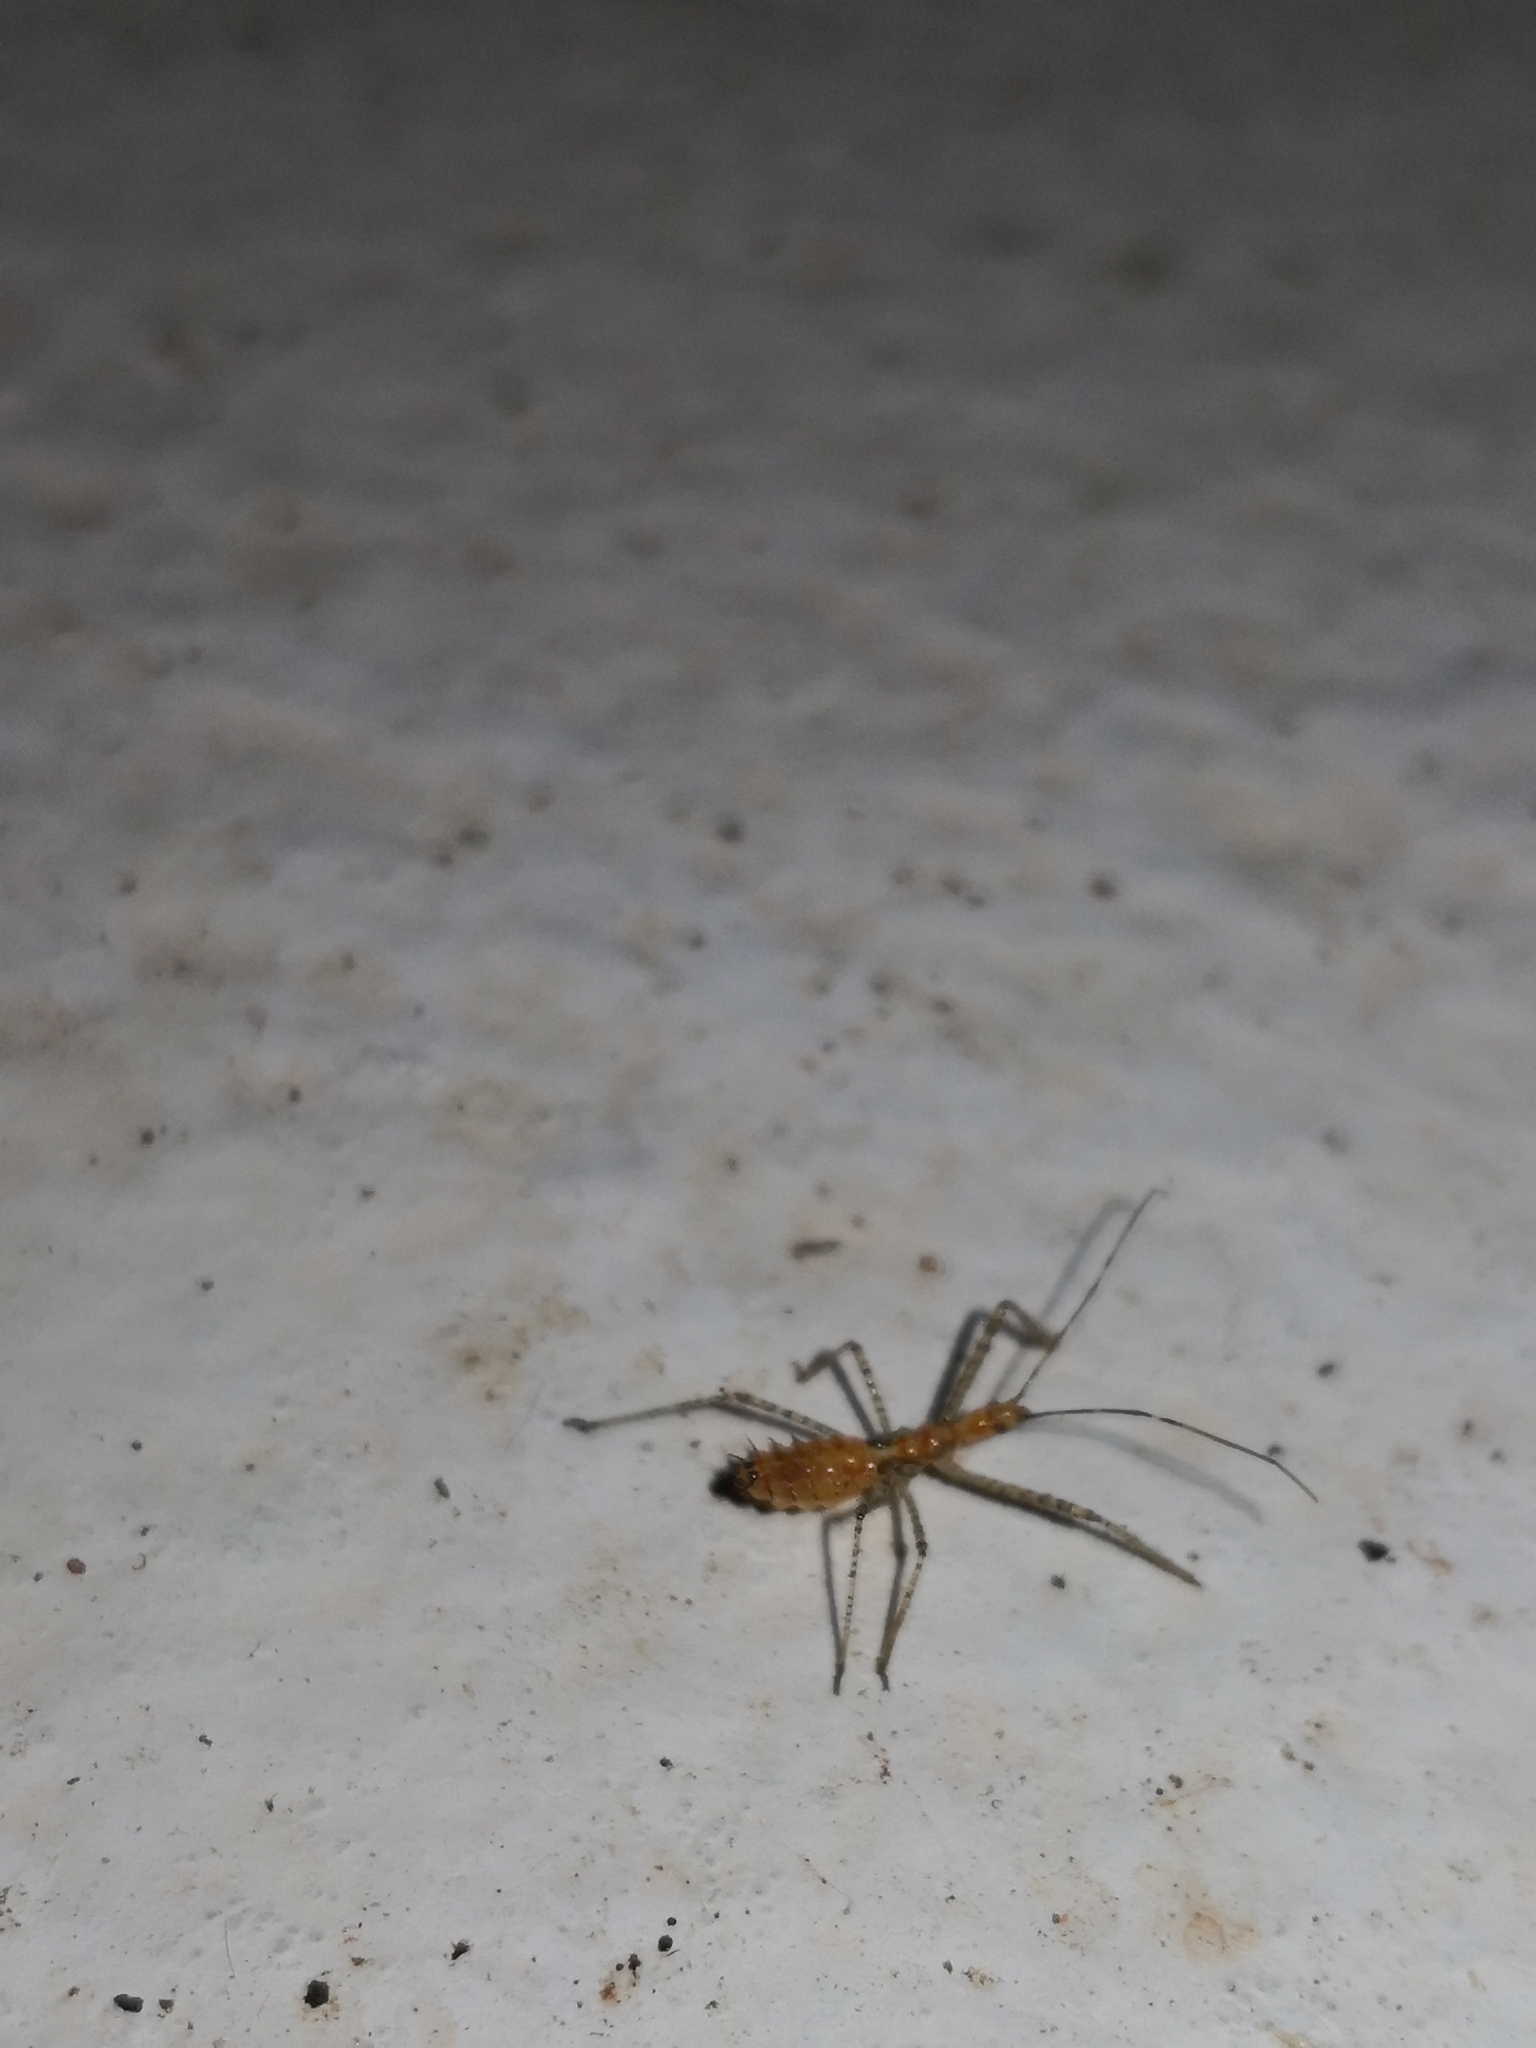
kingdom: Animalia
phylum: Arthropoda
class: Insecta
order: Hemiptera
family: Reduviidae
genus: Zelus
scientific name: Zelus renardii
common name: Assassin bug
